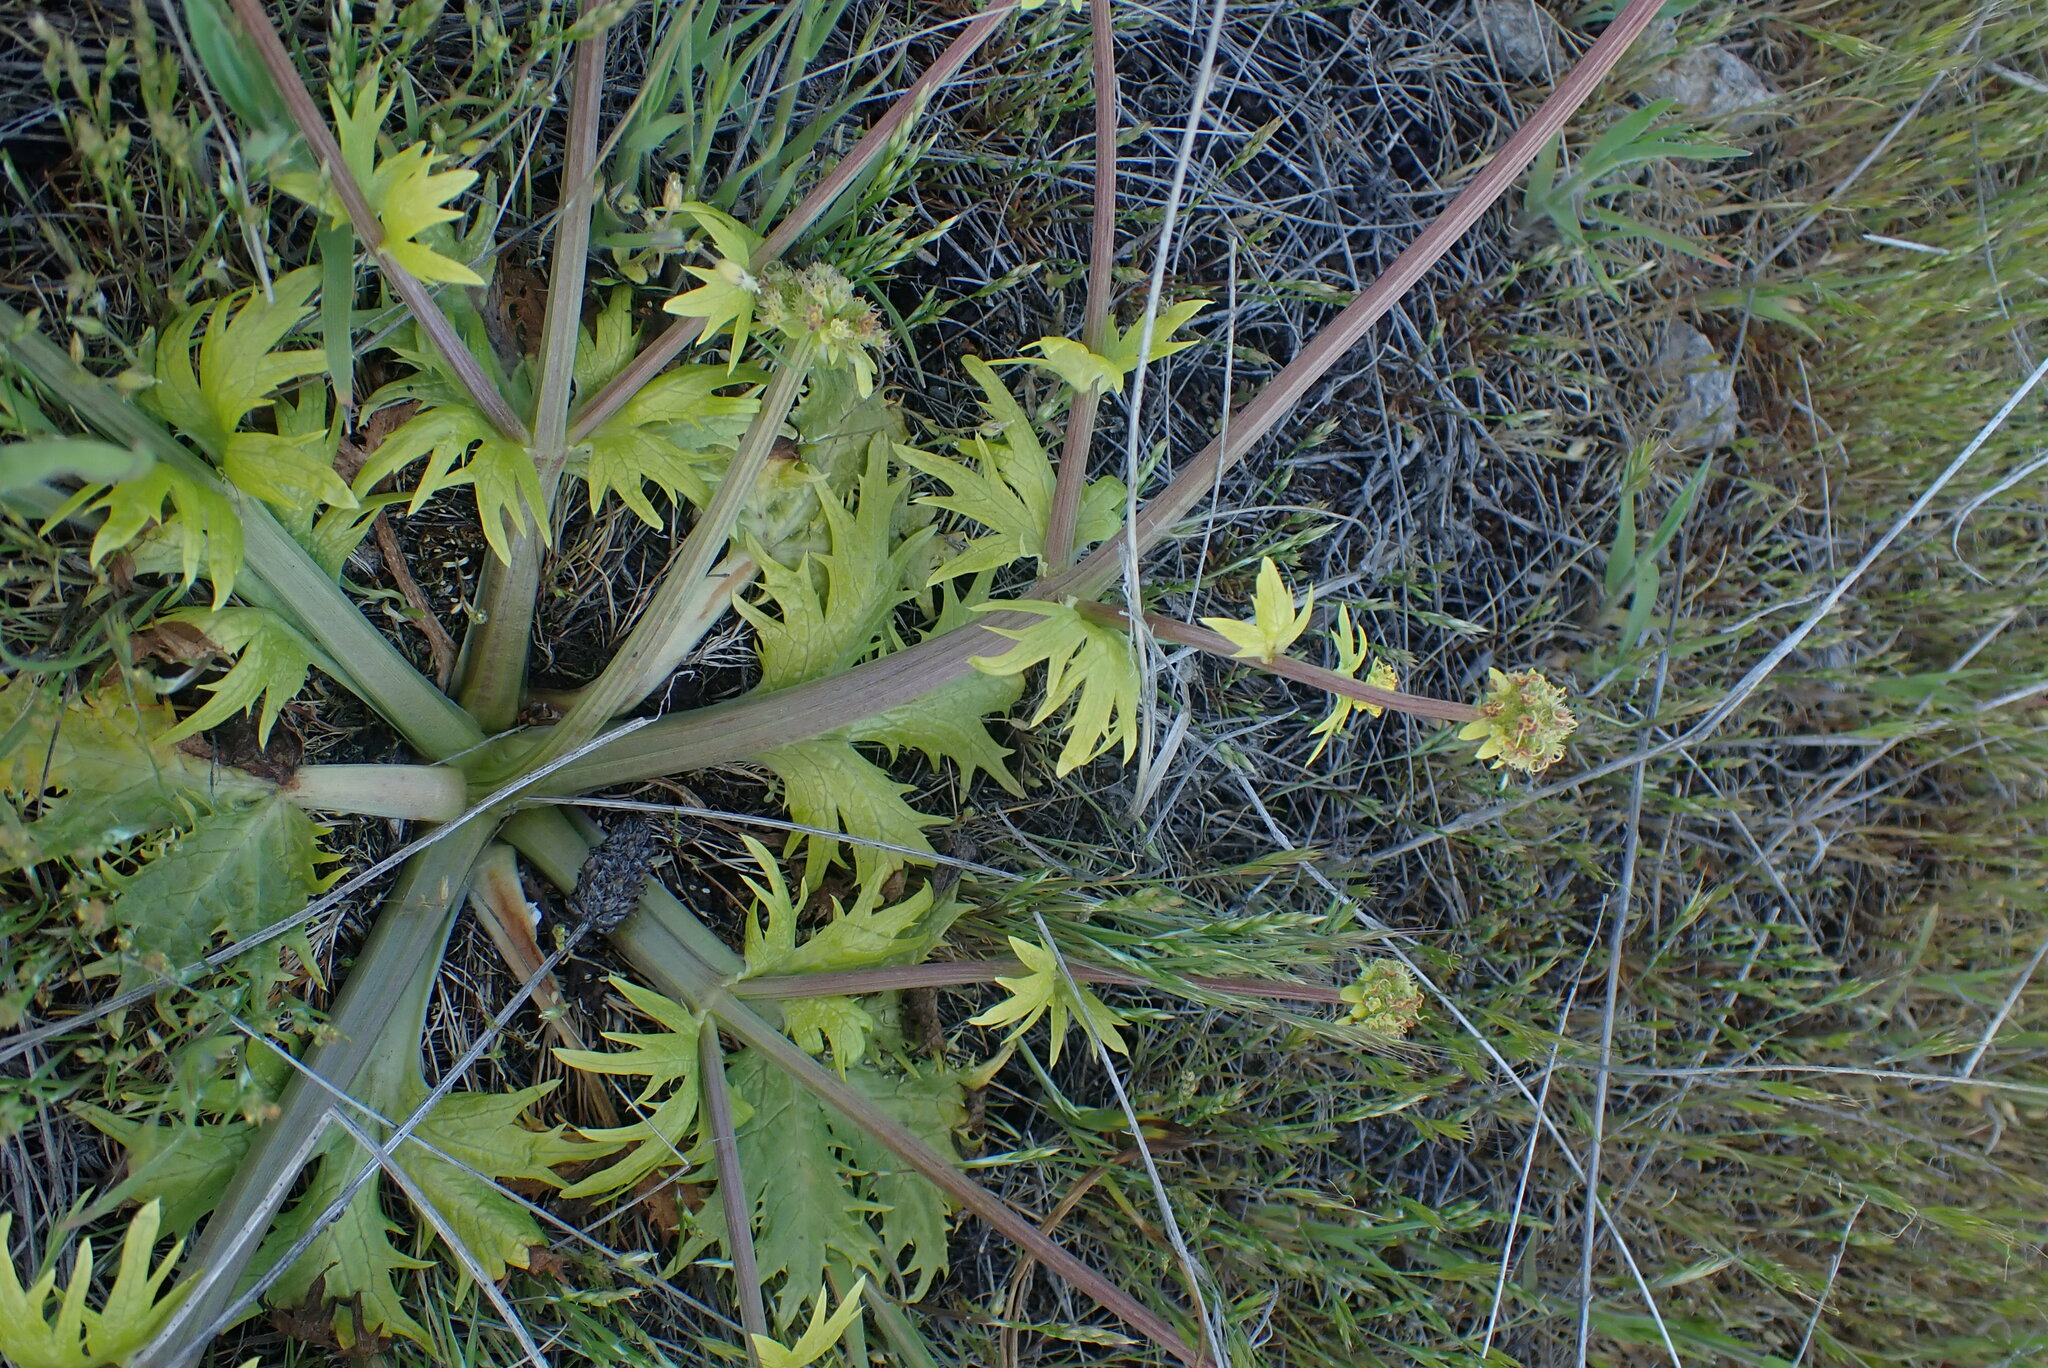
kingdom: Plantae
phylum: Tracheophyta
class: Magnoliopsida
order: Apiales
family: Apiaceae
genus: Sanicula
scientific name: Sanicula arctopoides
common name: Footsteps-of-spring
